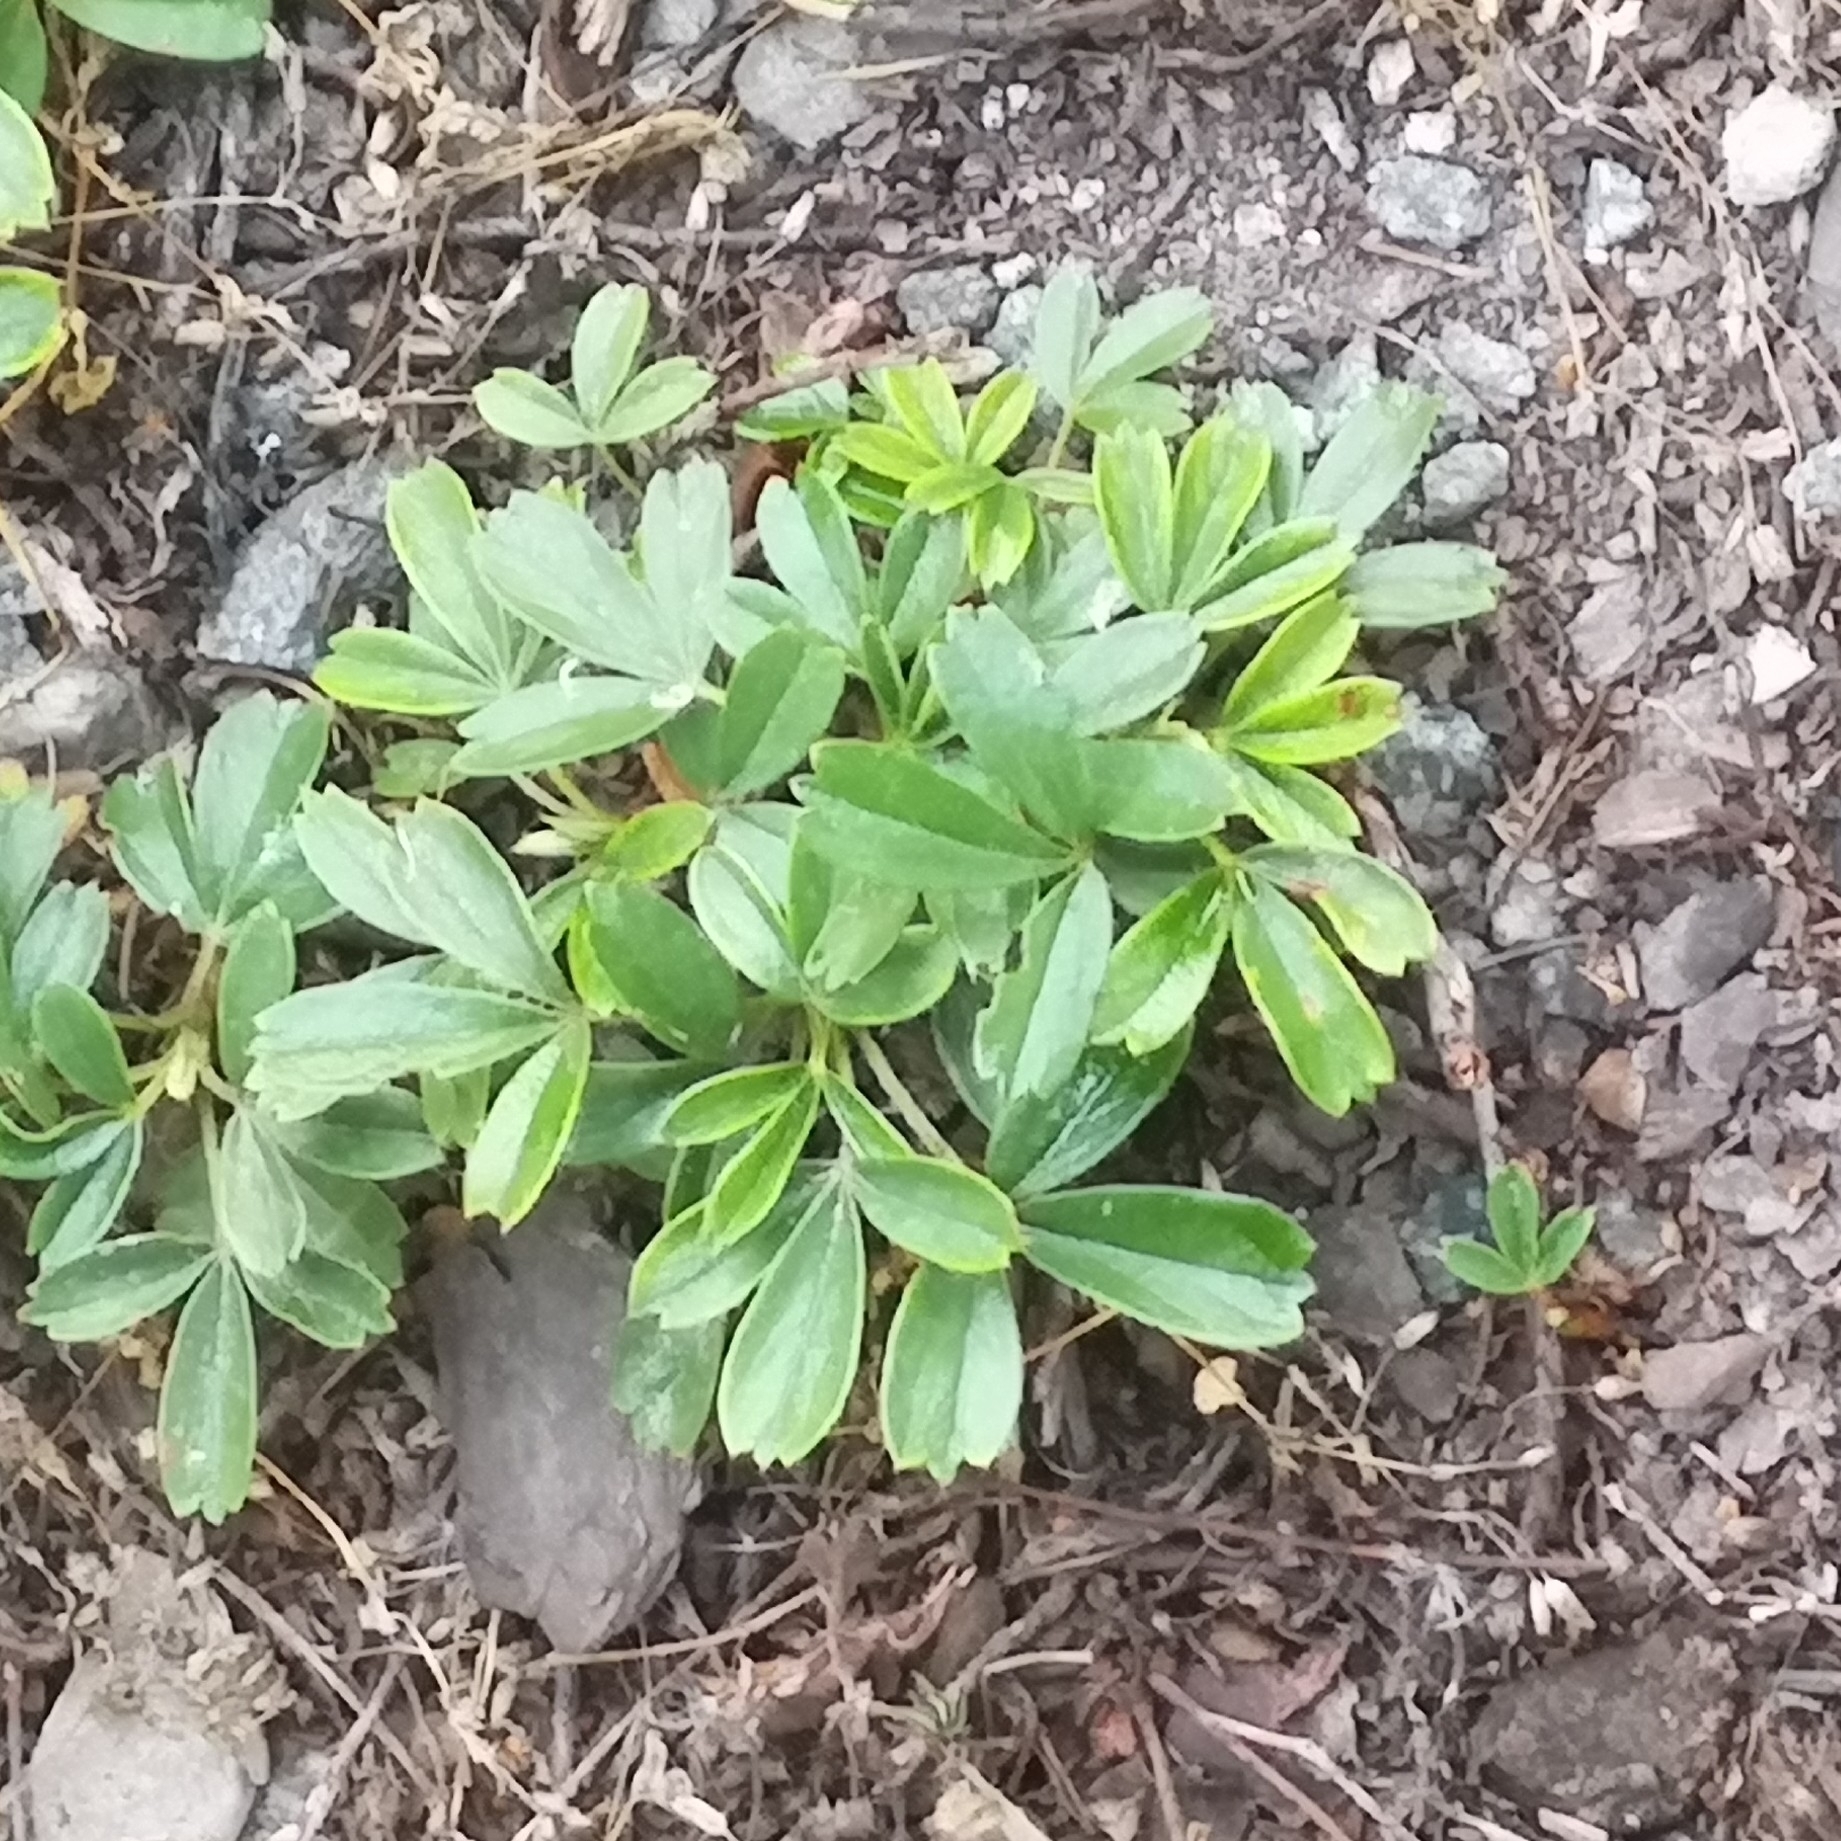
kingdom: Plantae
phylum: Tracheophyta
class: Magnoliopsida
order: Rosales
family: Rosaceae
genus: Sibbaldia
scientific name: Sibbaldia procumbens
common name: Creeping sibbaldia
